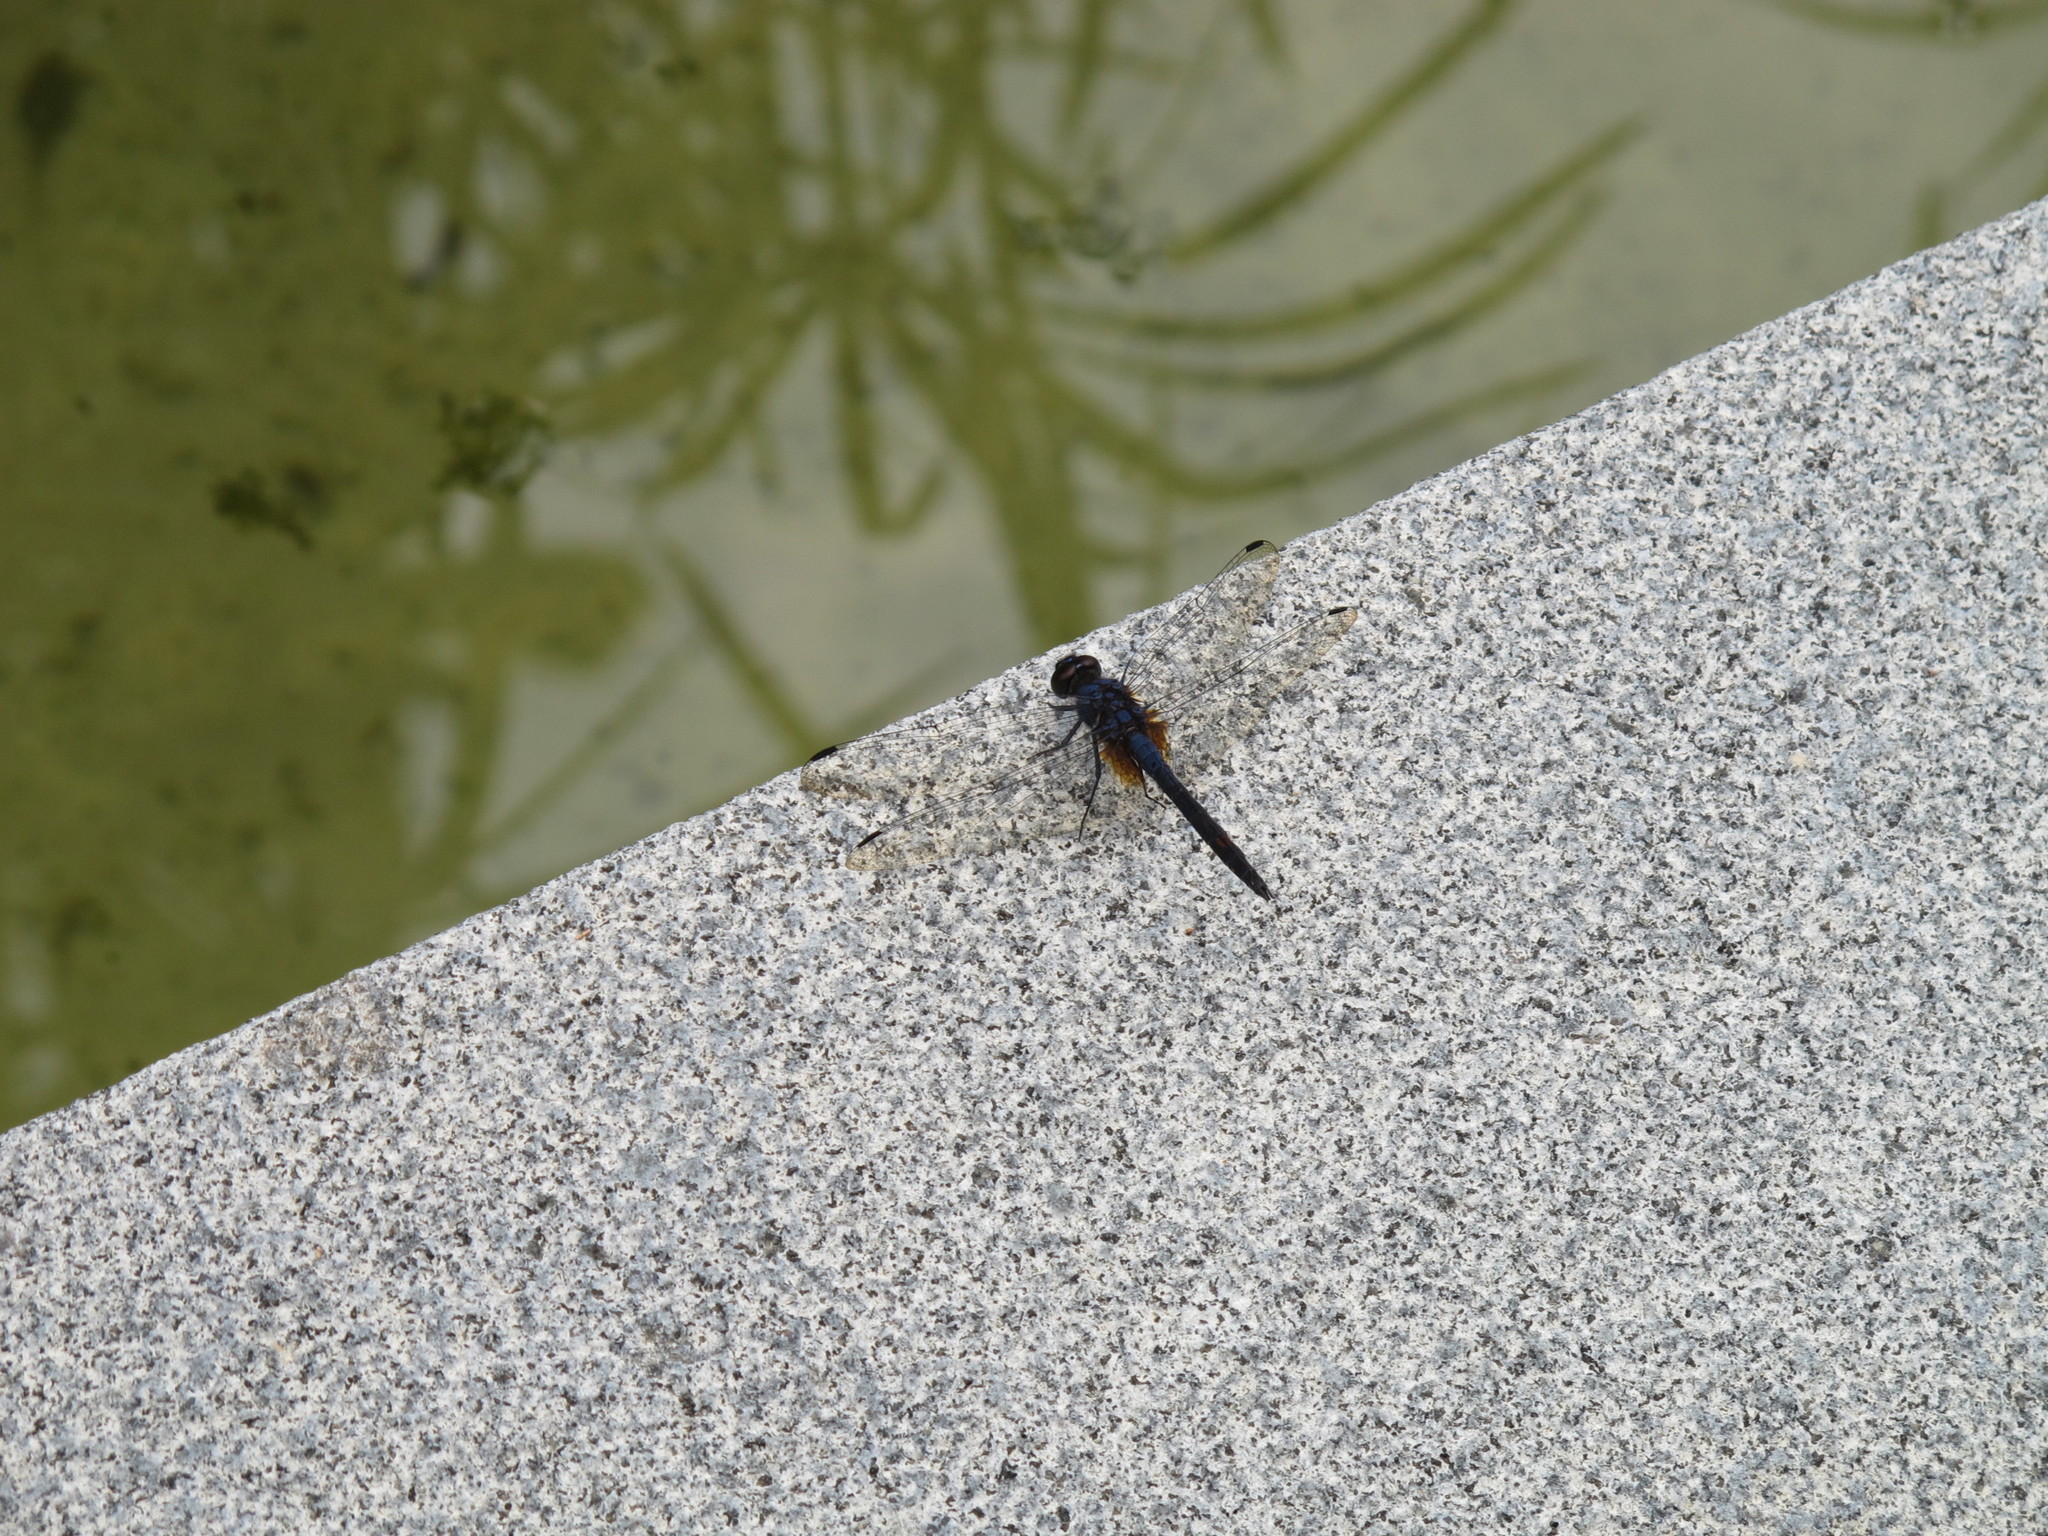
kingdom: Animalia
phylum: Arthropoda
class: Insecta
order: Odonata
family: Libellulidae
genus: Trithemis
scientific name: Trithemis festiva
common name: Indigo dropwing
